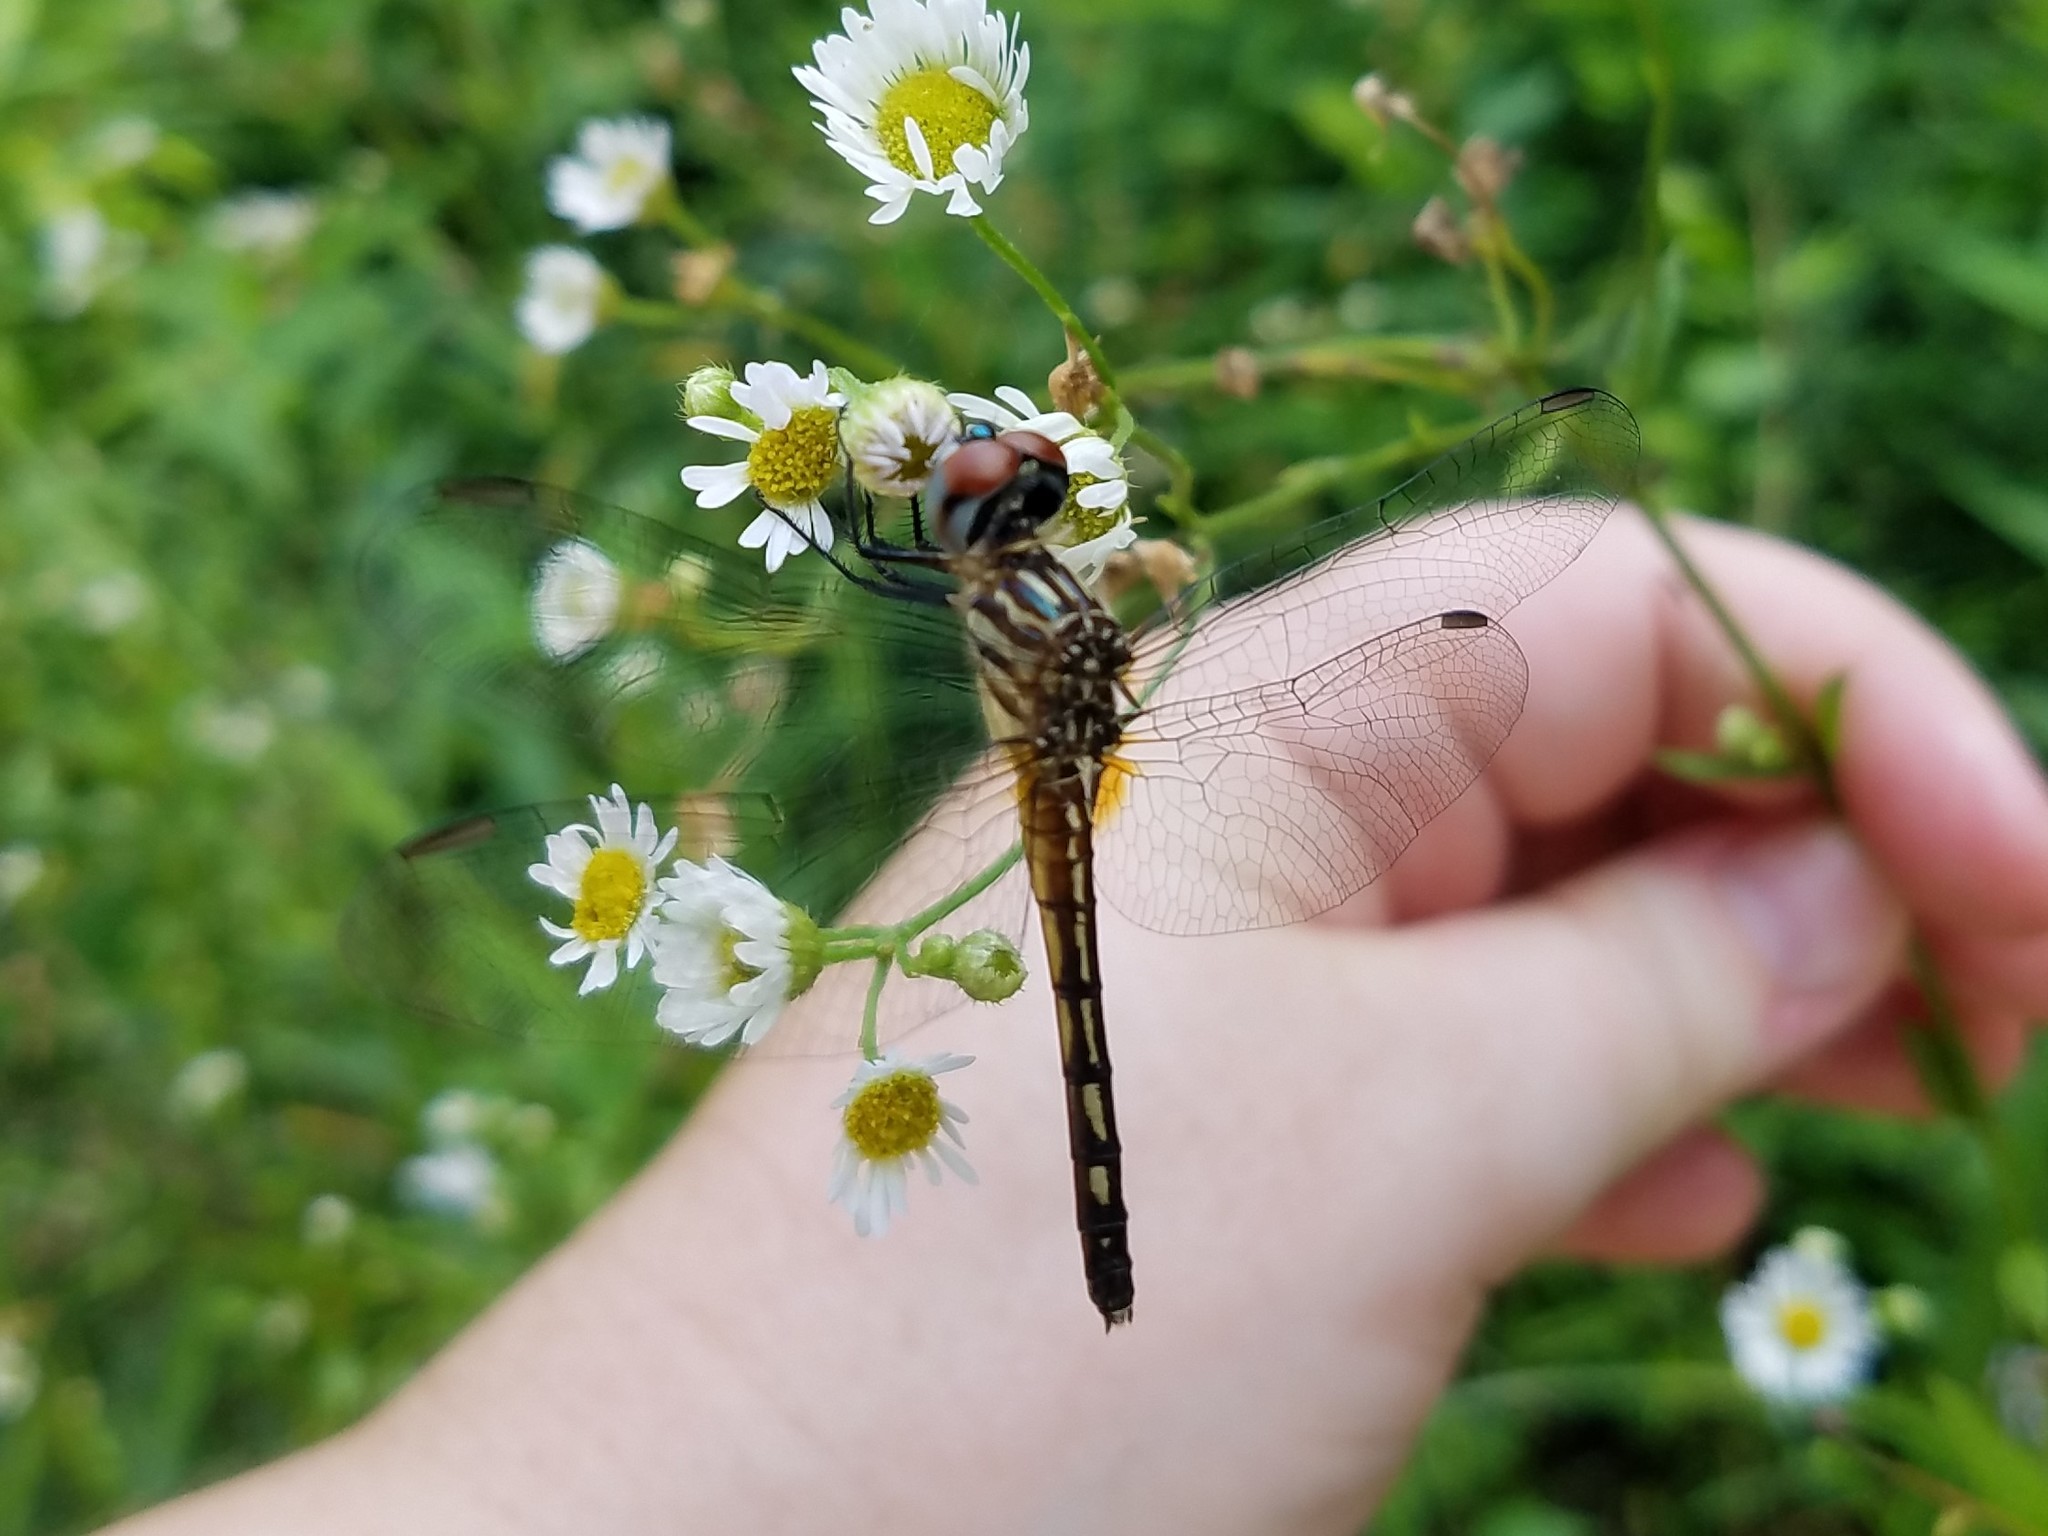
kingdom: Animalia
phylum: Arthropoda
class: Insecta
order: Odonata
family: Libellulidae
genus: Pachydiplax
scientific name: Pachydiplax longipennis
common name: Blue dasher
